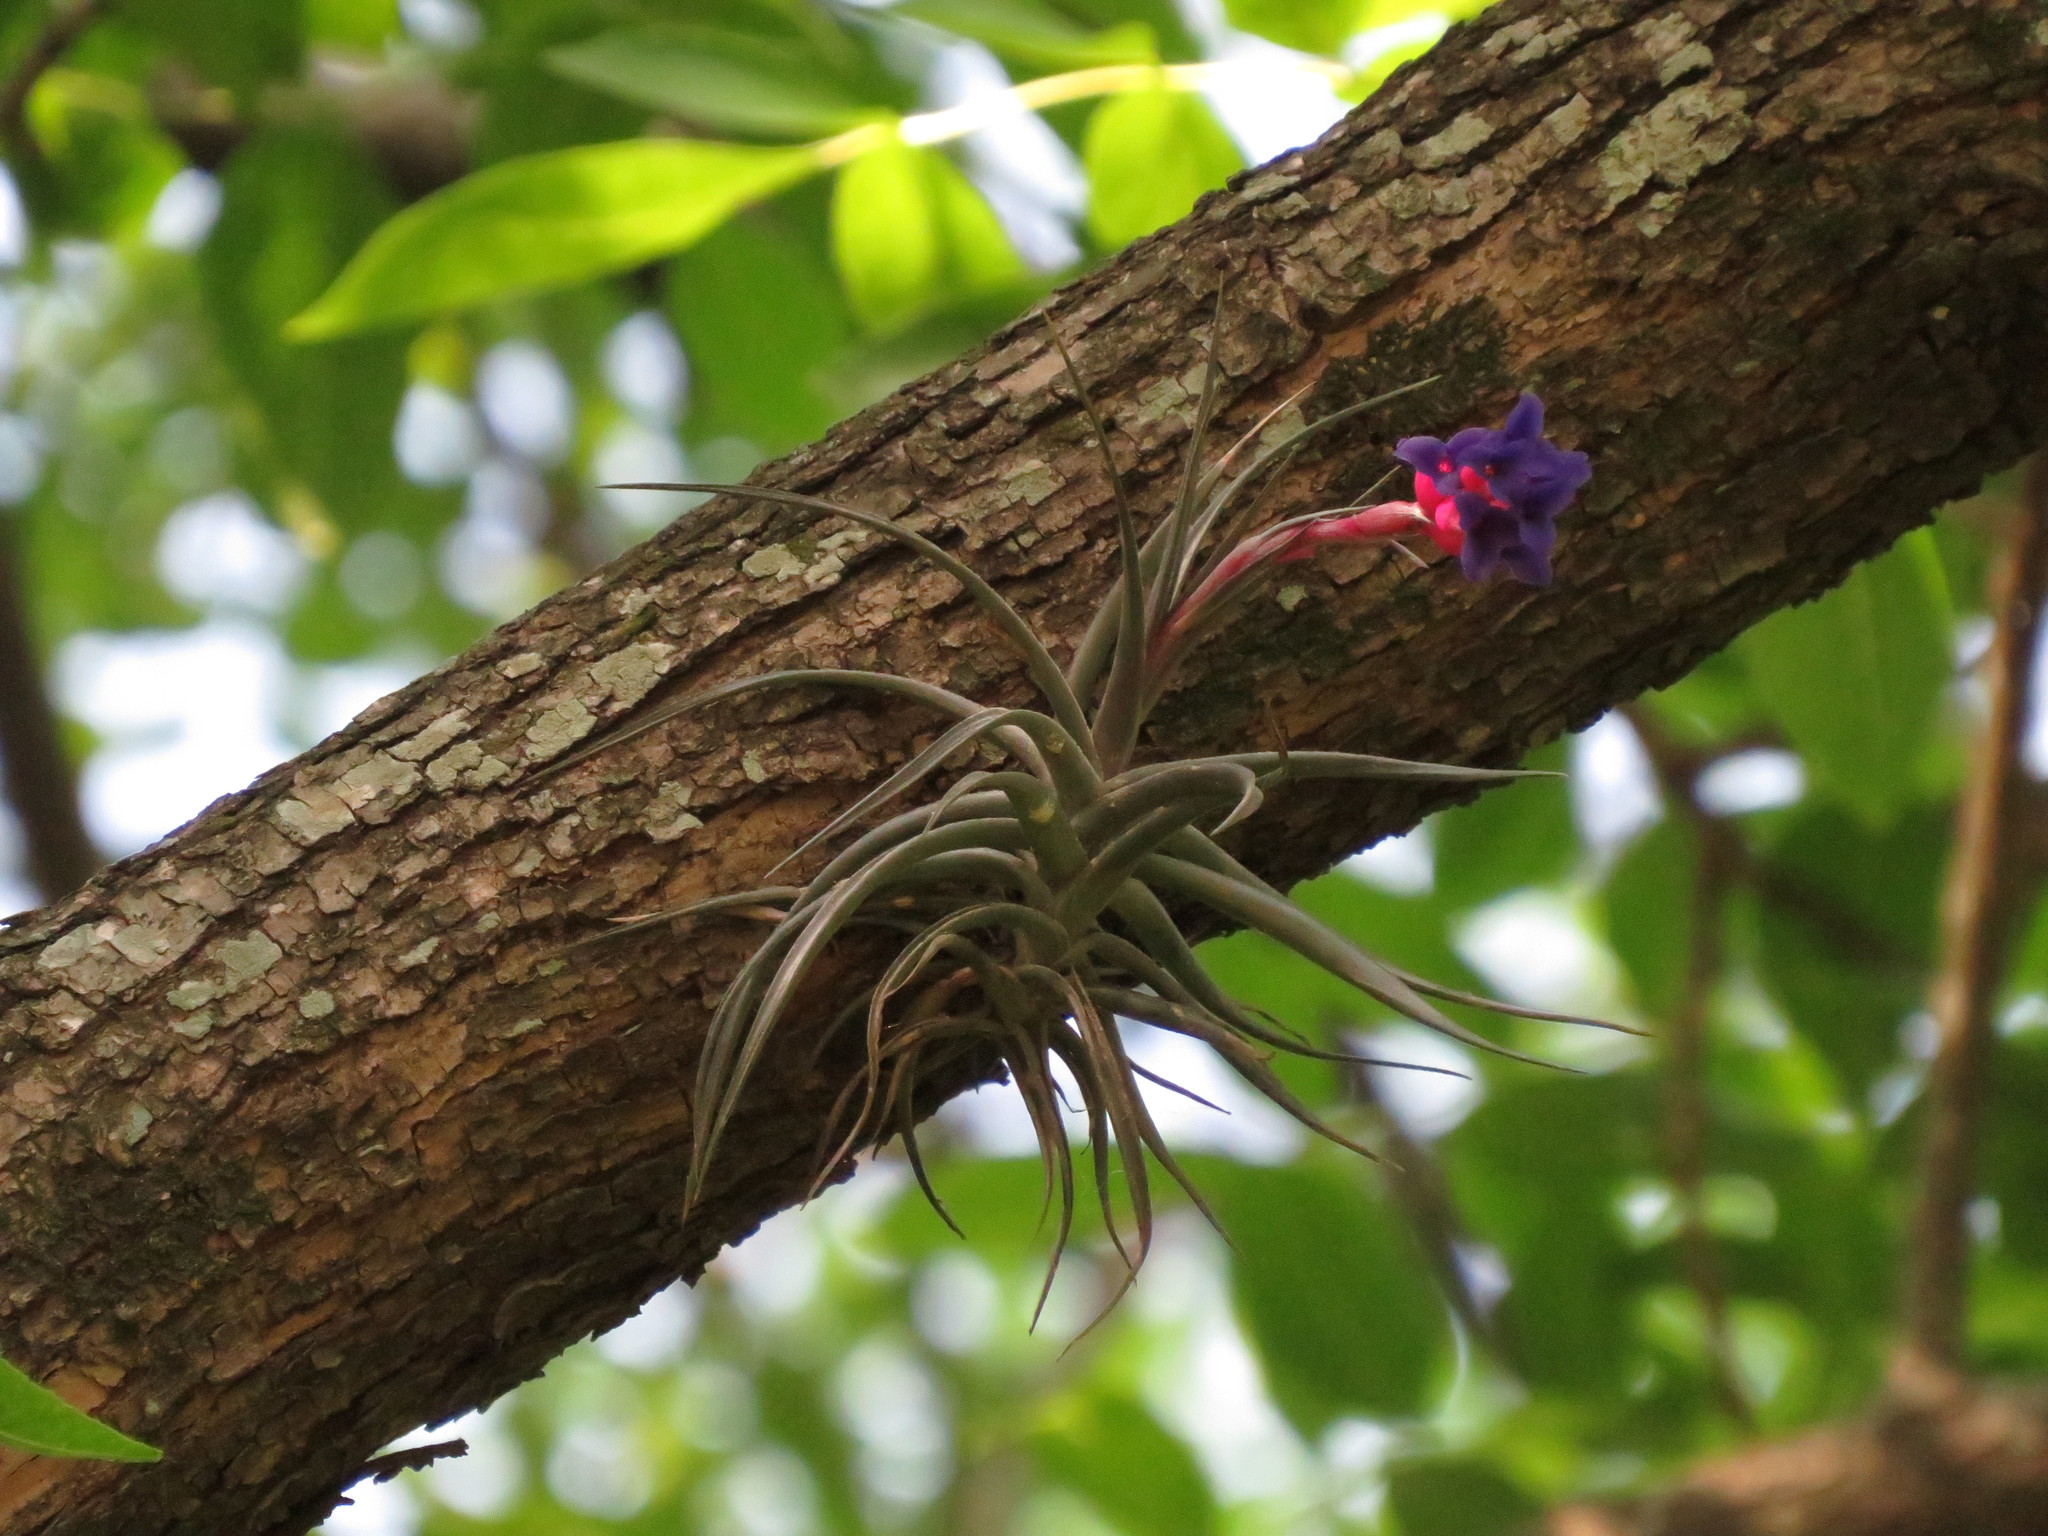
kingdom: Plantae
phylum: Tracheophyta
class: Liliopsida
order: Poales
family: Bromeliaceae
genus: Tillandsia
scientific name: Tillandsia aeranthos
